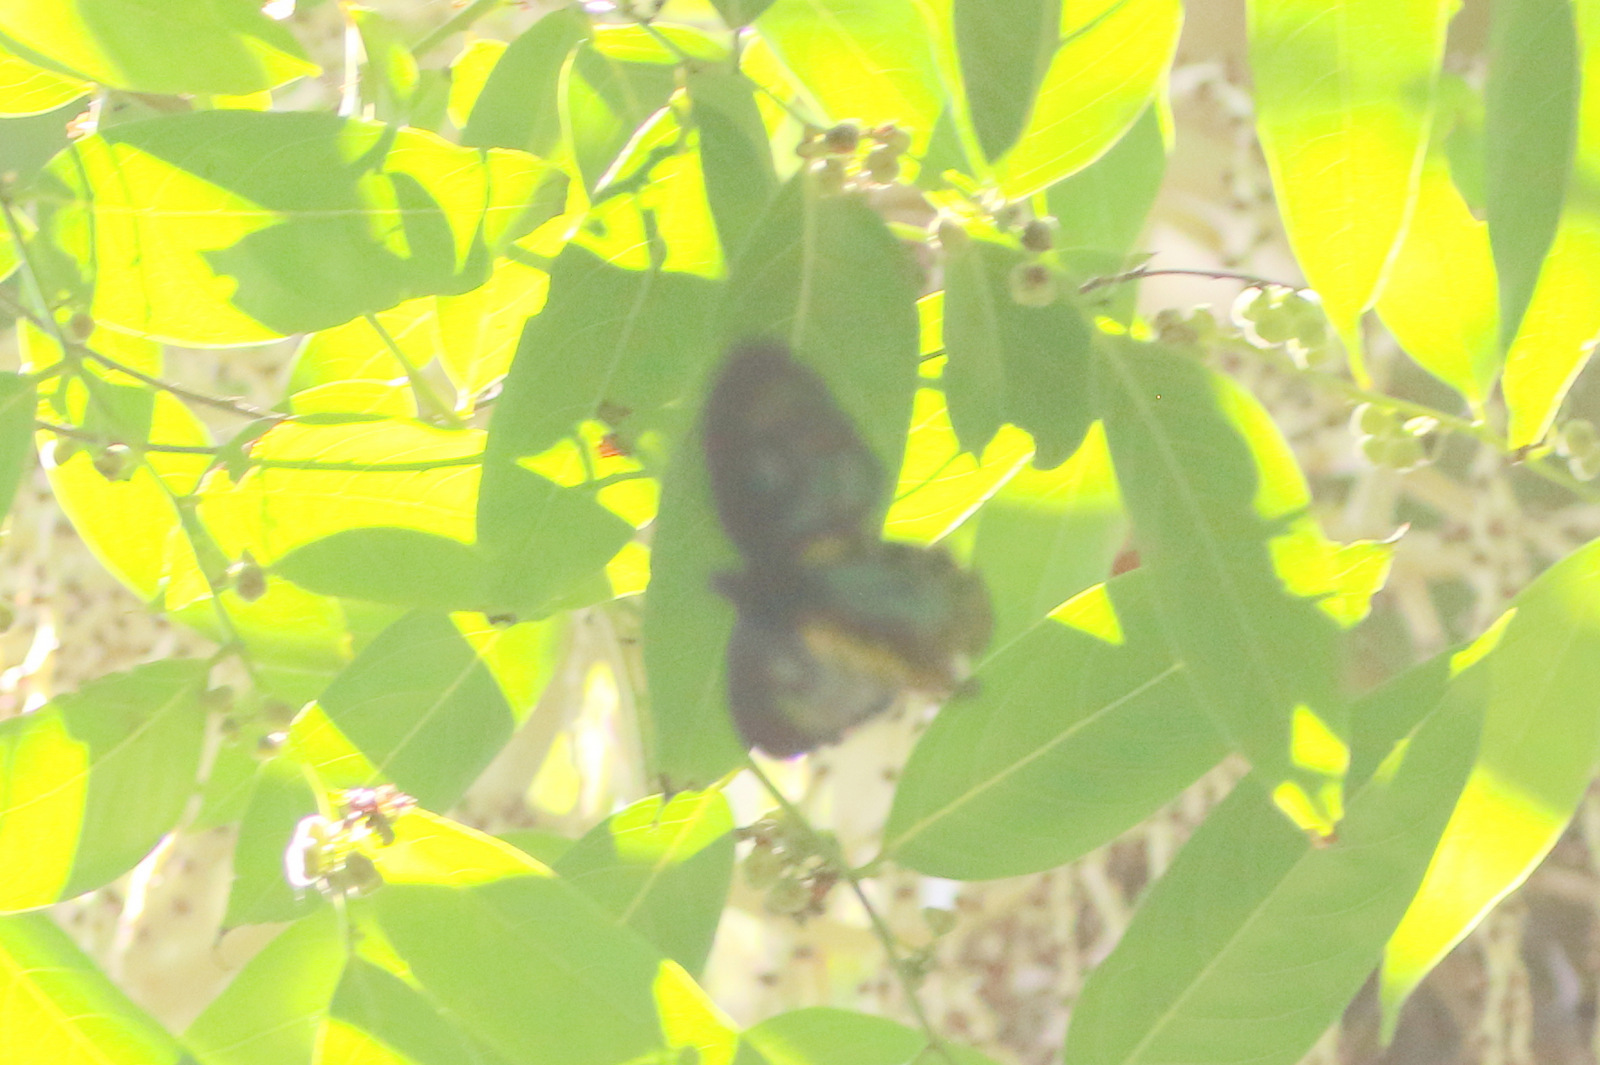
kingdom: Animalia
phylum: Arthropoda
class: Insecta
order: Lepidoptera
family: Papilionidae
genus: Ornithoptera
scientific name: Ornithoptera richmondia
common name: Richmond birdwing
